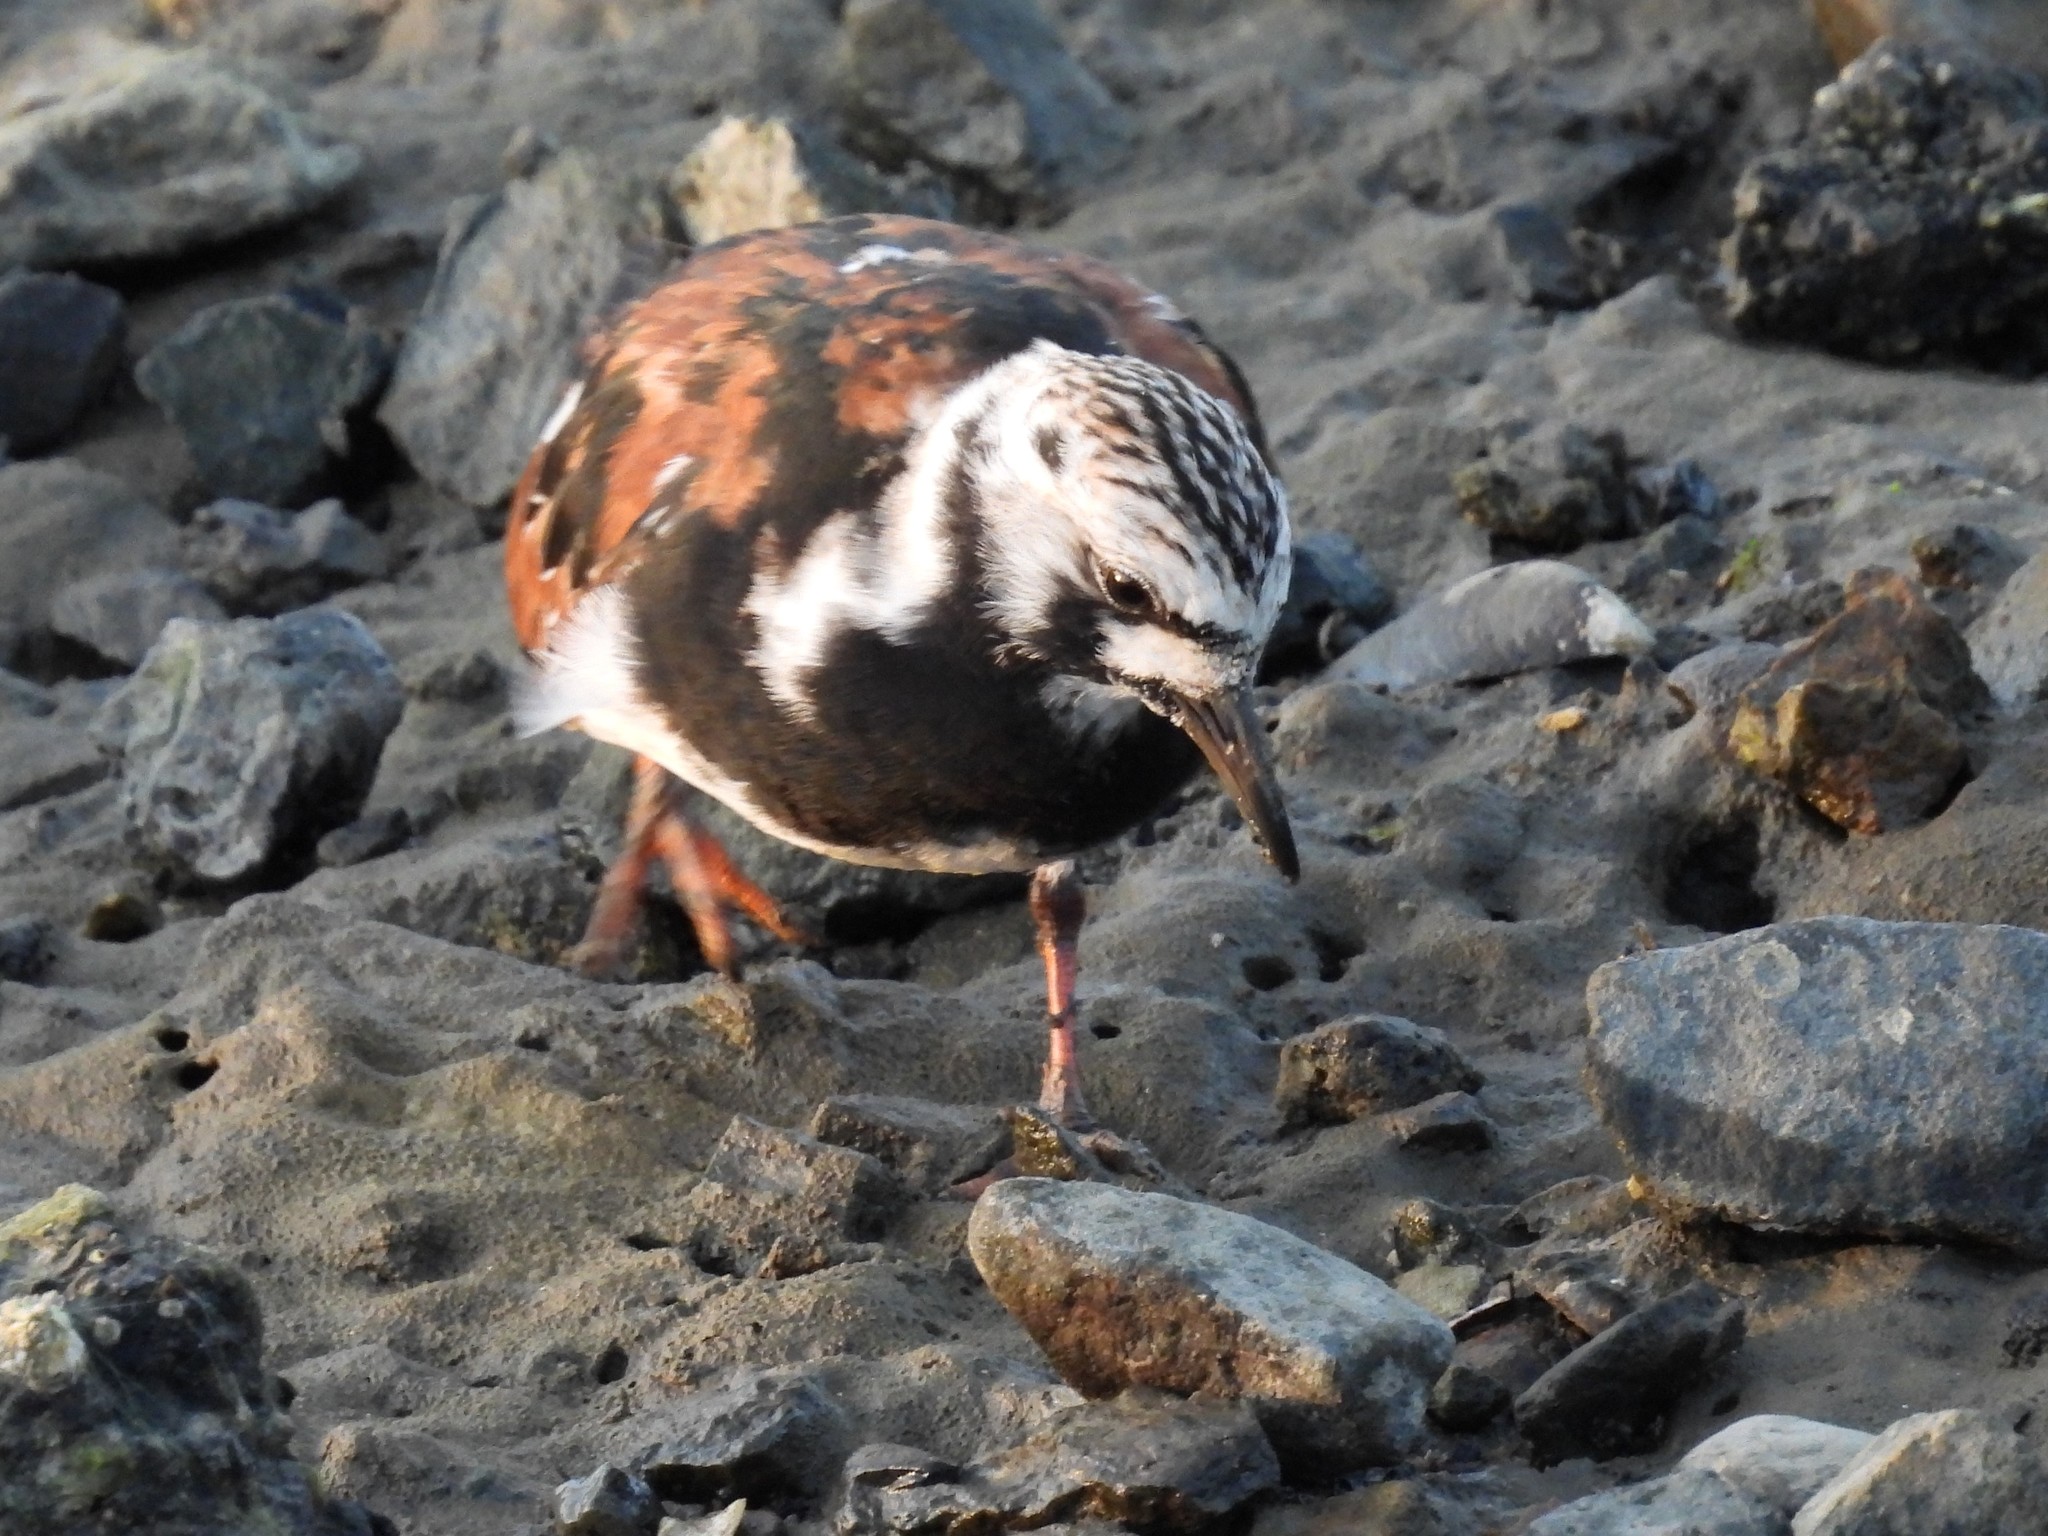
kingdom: Animalia
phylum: Chordata
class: Aves
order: Charadriiformes
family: Scolopacidae
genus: Arenaria
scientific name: Arenaria interpres
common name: Ruddy turnstone
